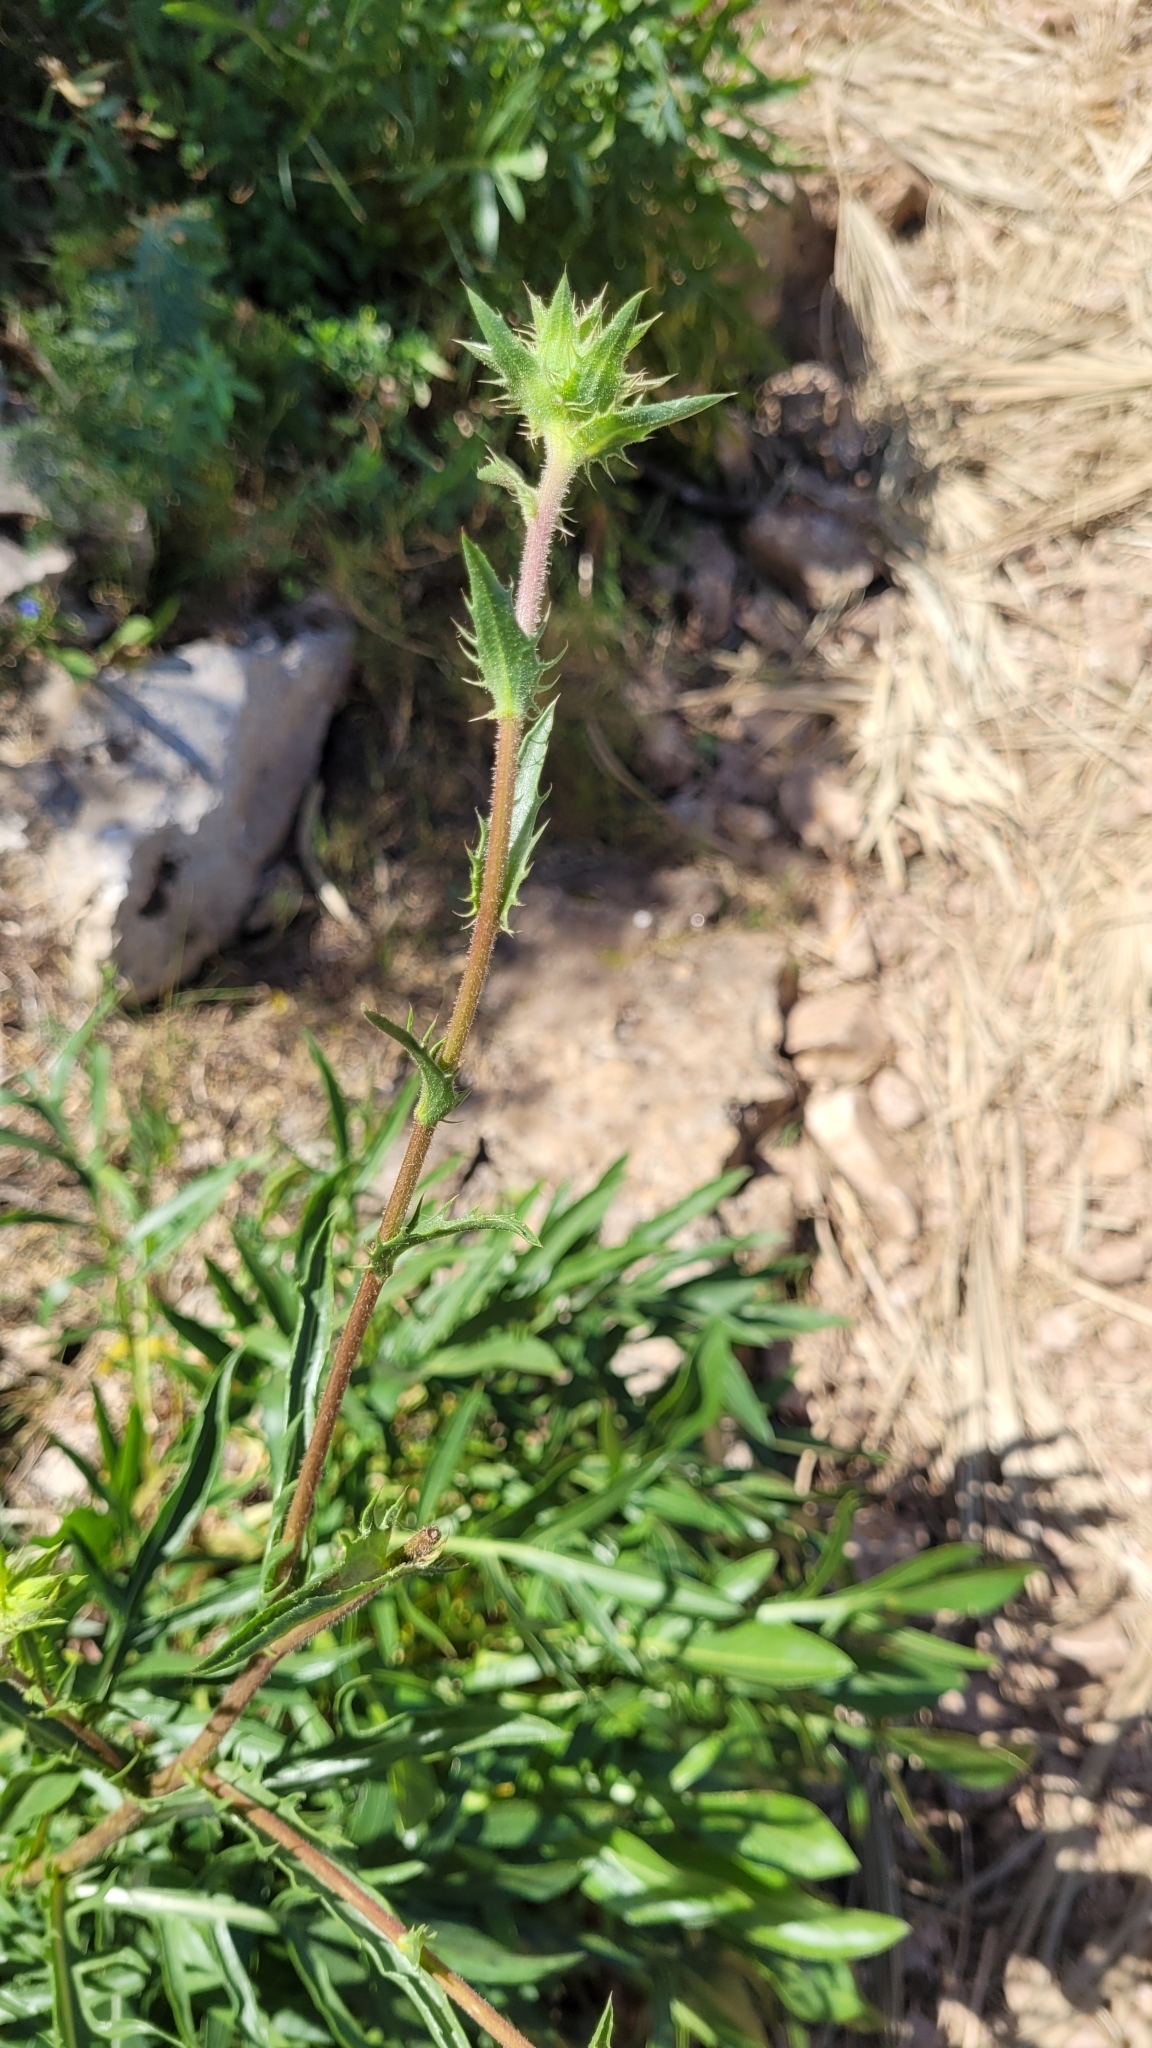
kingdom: Plantae
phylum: Tracheophyta
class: Magnoliopsida
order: Asterales
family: Asteraceae
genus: Carduncellus
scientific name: Carduncellus dianius
